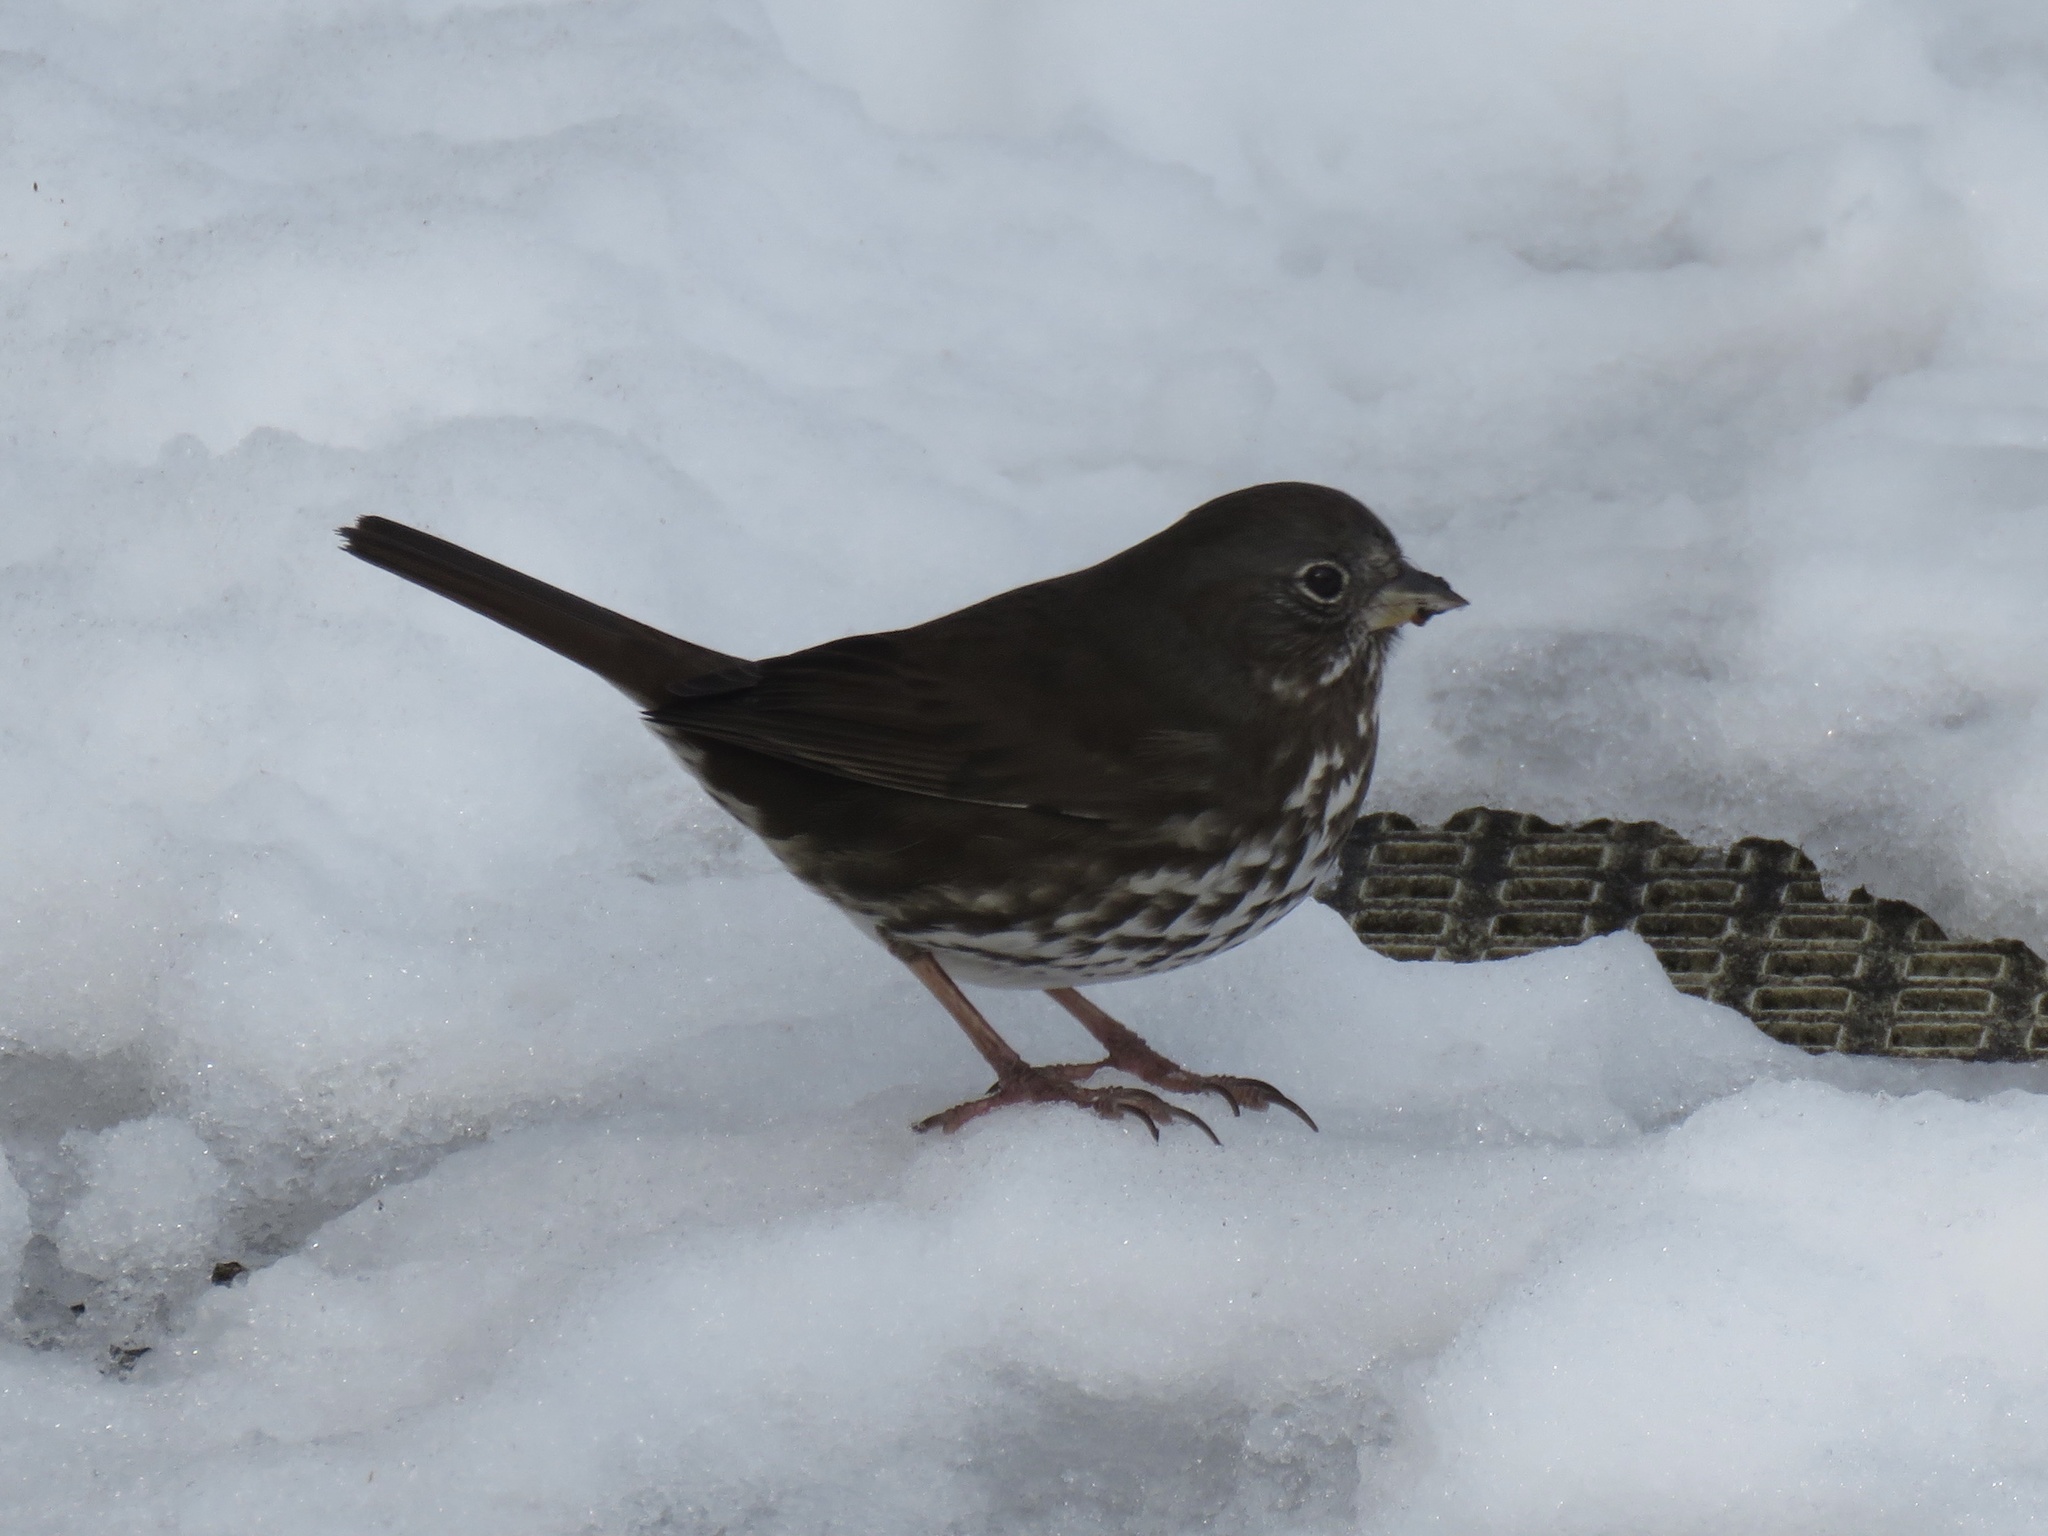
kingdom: Animalia
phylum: Chordata
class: Aves
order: Passeriformes
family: Passerellidae
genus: Passerella
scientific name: Passerella iliaca
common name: Fox sparrow
